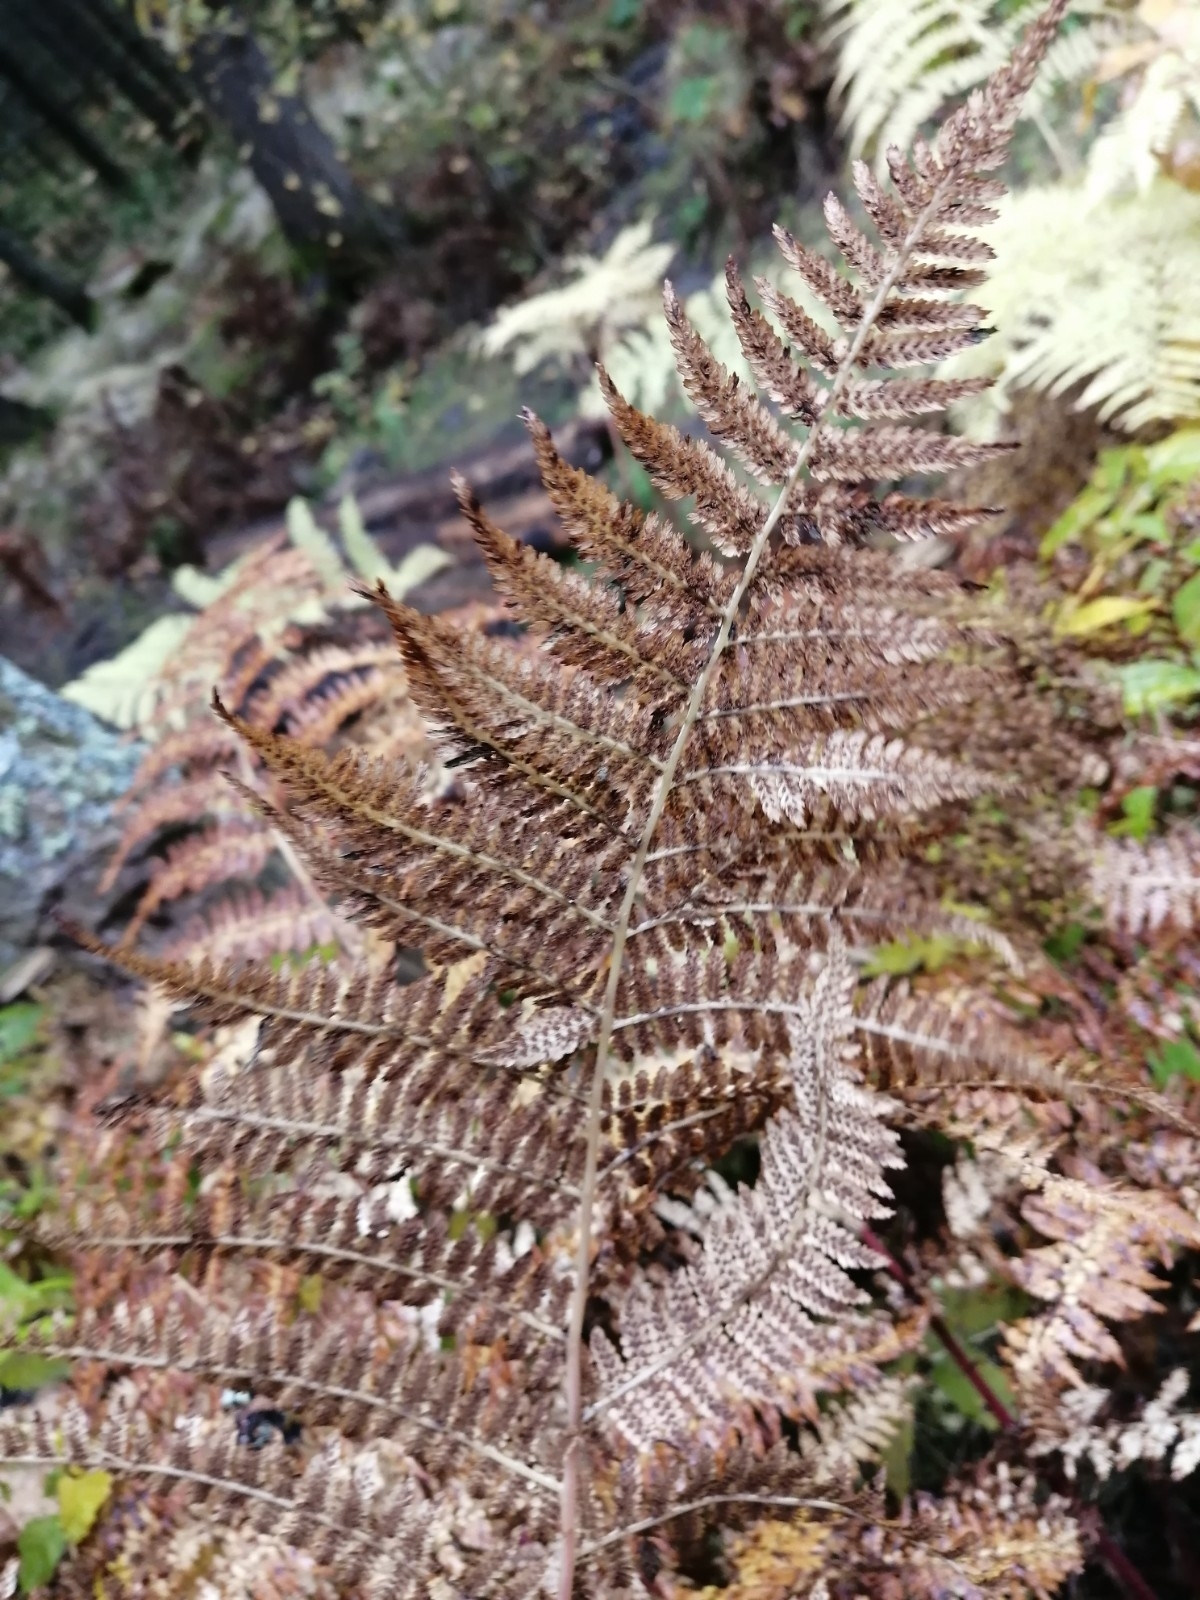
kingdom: Plantae
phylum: Tracheophyta
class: Polypodiopsida
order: Polypodiales
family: Athyriaceae
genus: Athyrium
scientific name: Athyrium filix-femina
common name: Lady fern
